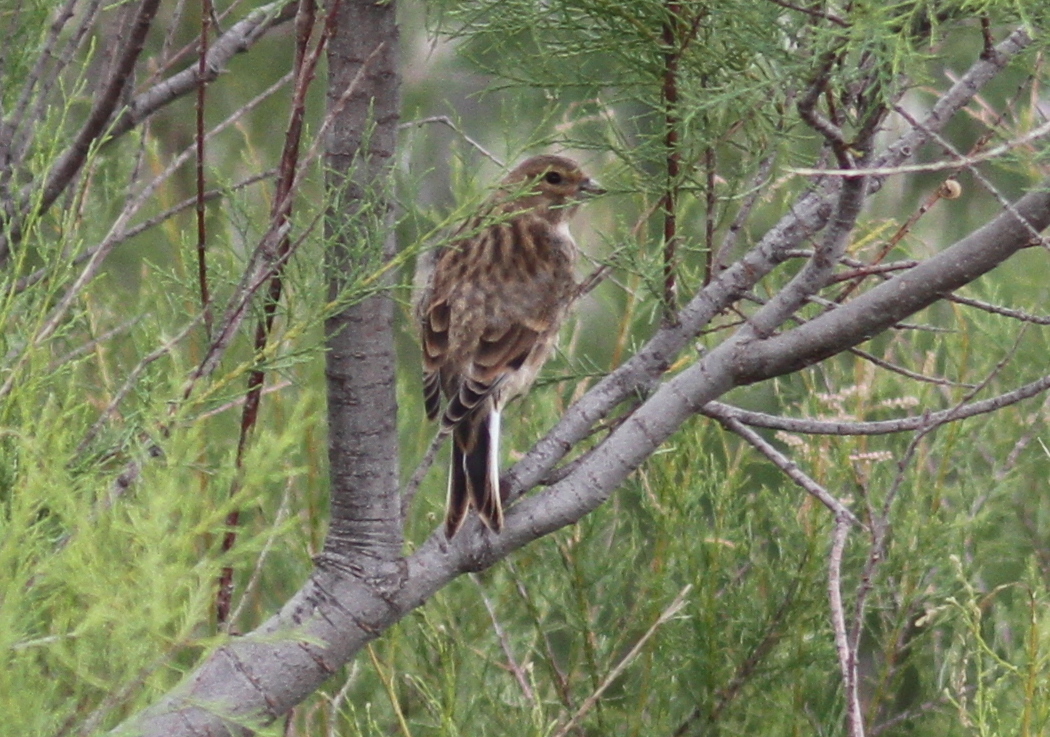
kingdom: Animalia
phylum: Chordata
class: Aves
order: Passeriformes
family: Fringillidae
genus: Linaria
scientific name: Linaria cannabina
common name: Common linnet
